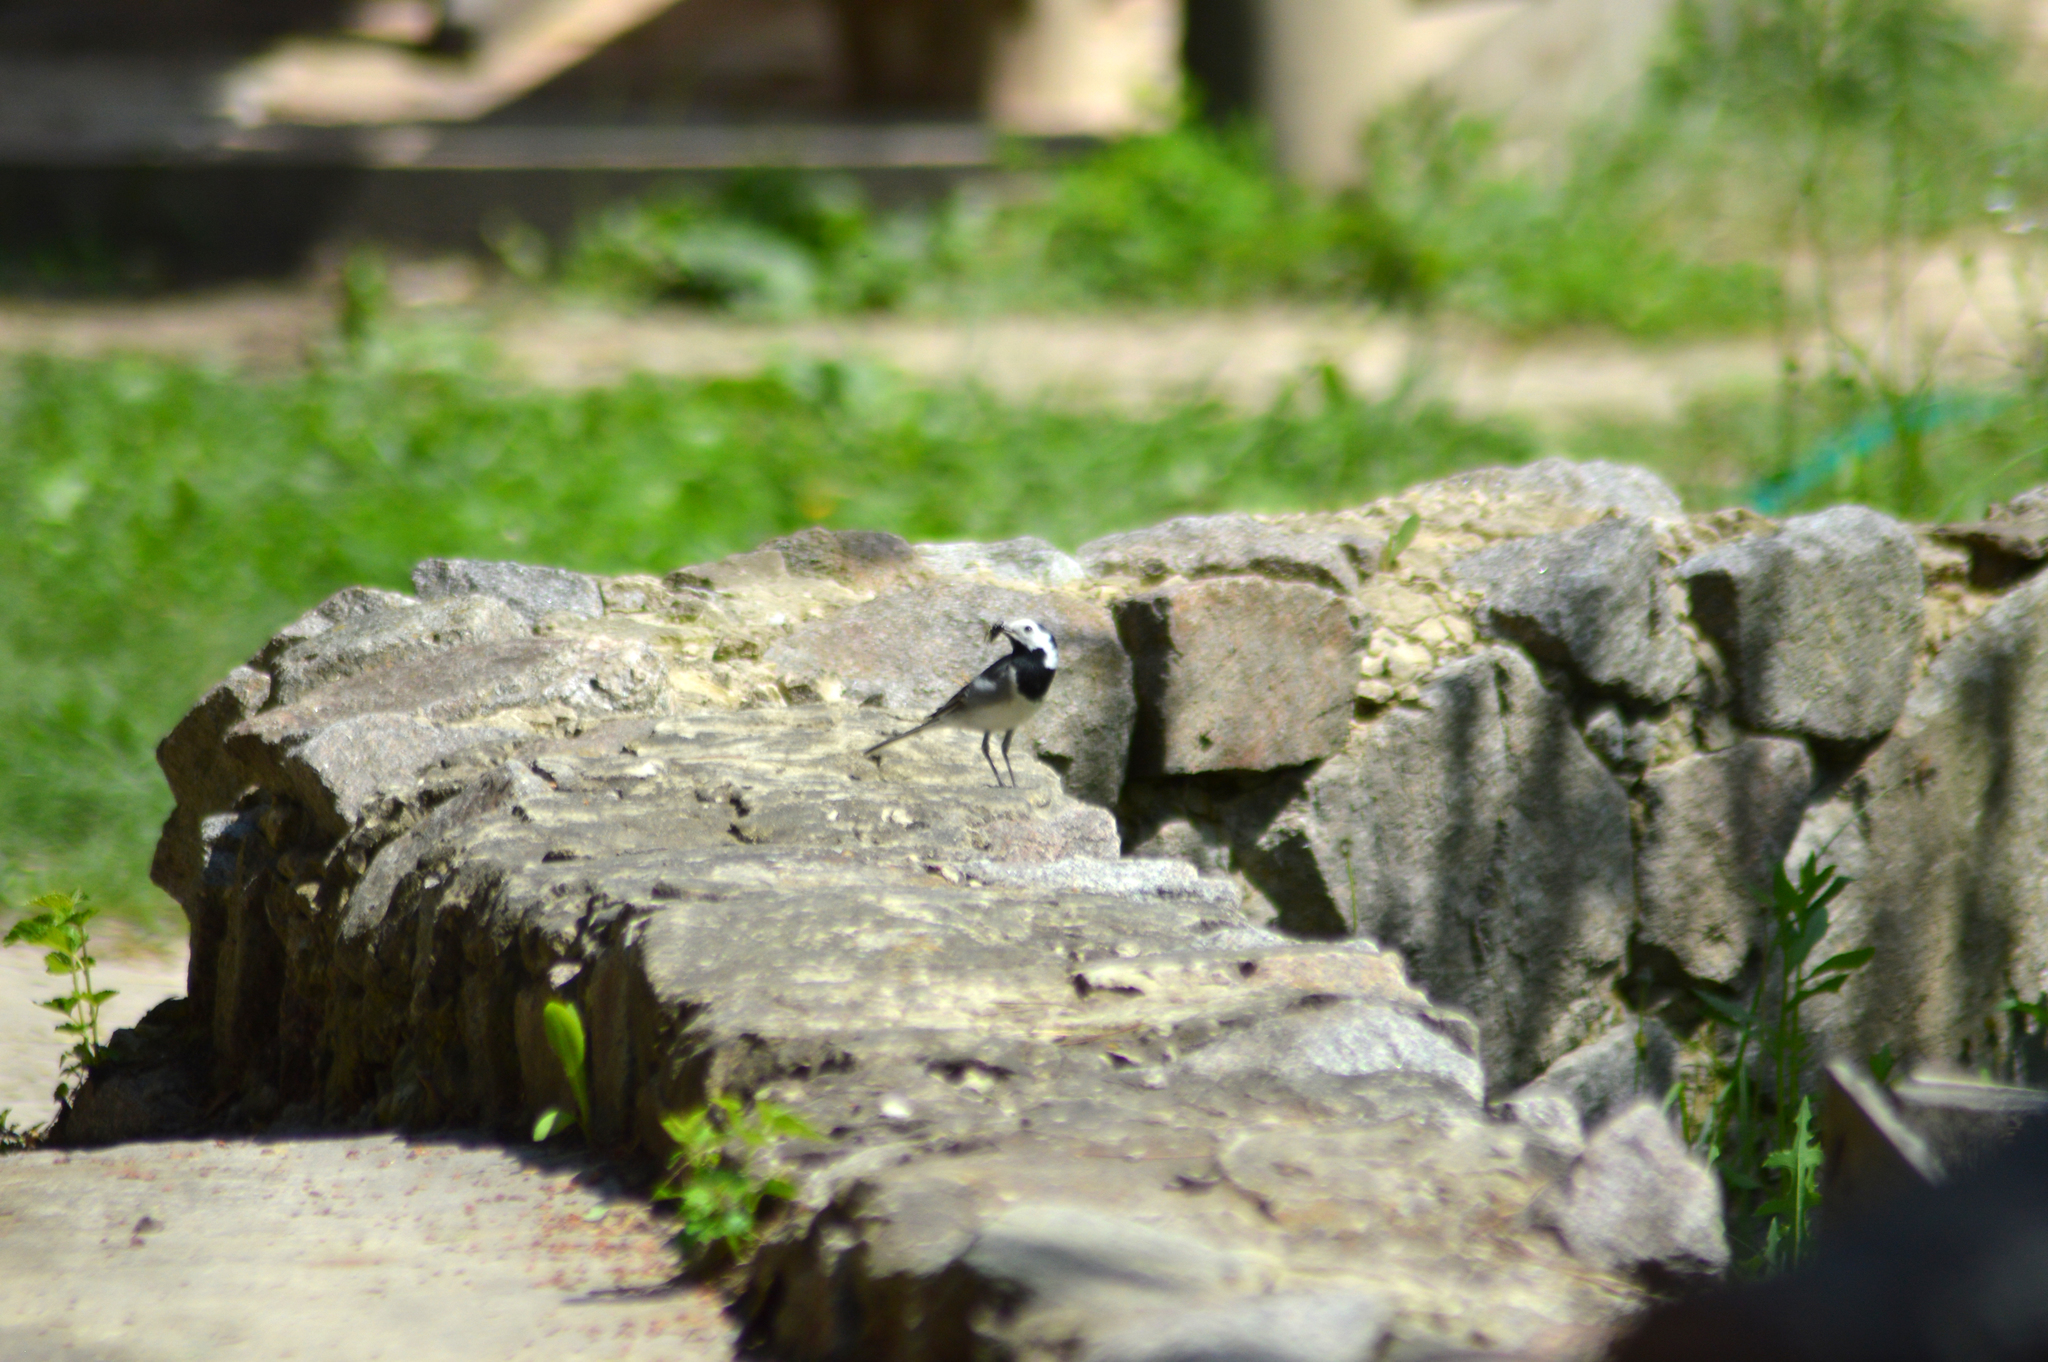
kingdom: Animalia
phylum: Chordata
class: Aves
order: Passeriformes
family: Motacillidae
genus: Motacilla
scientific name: Motacilla alba
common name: White wagtail
